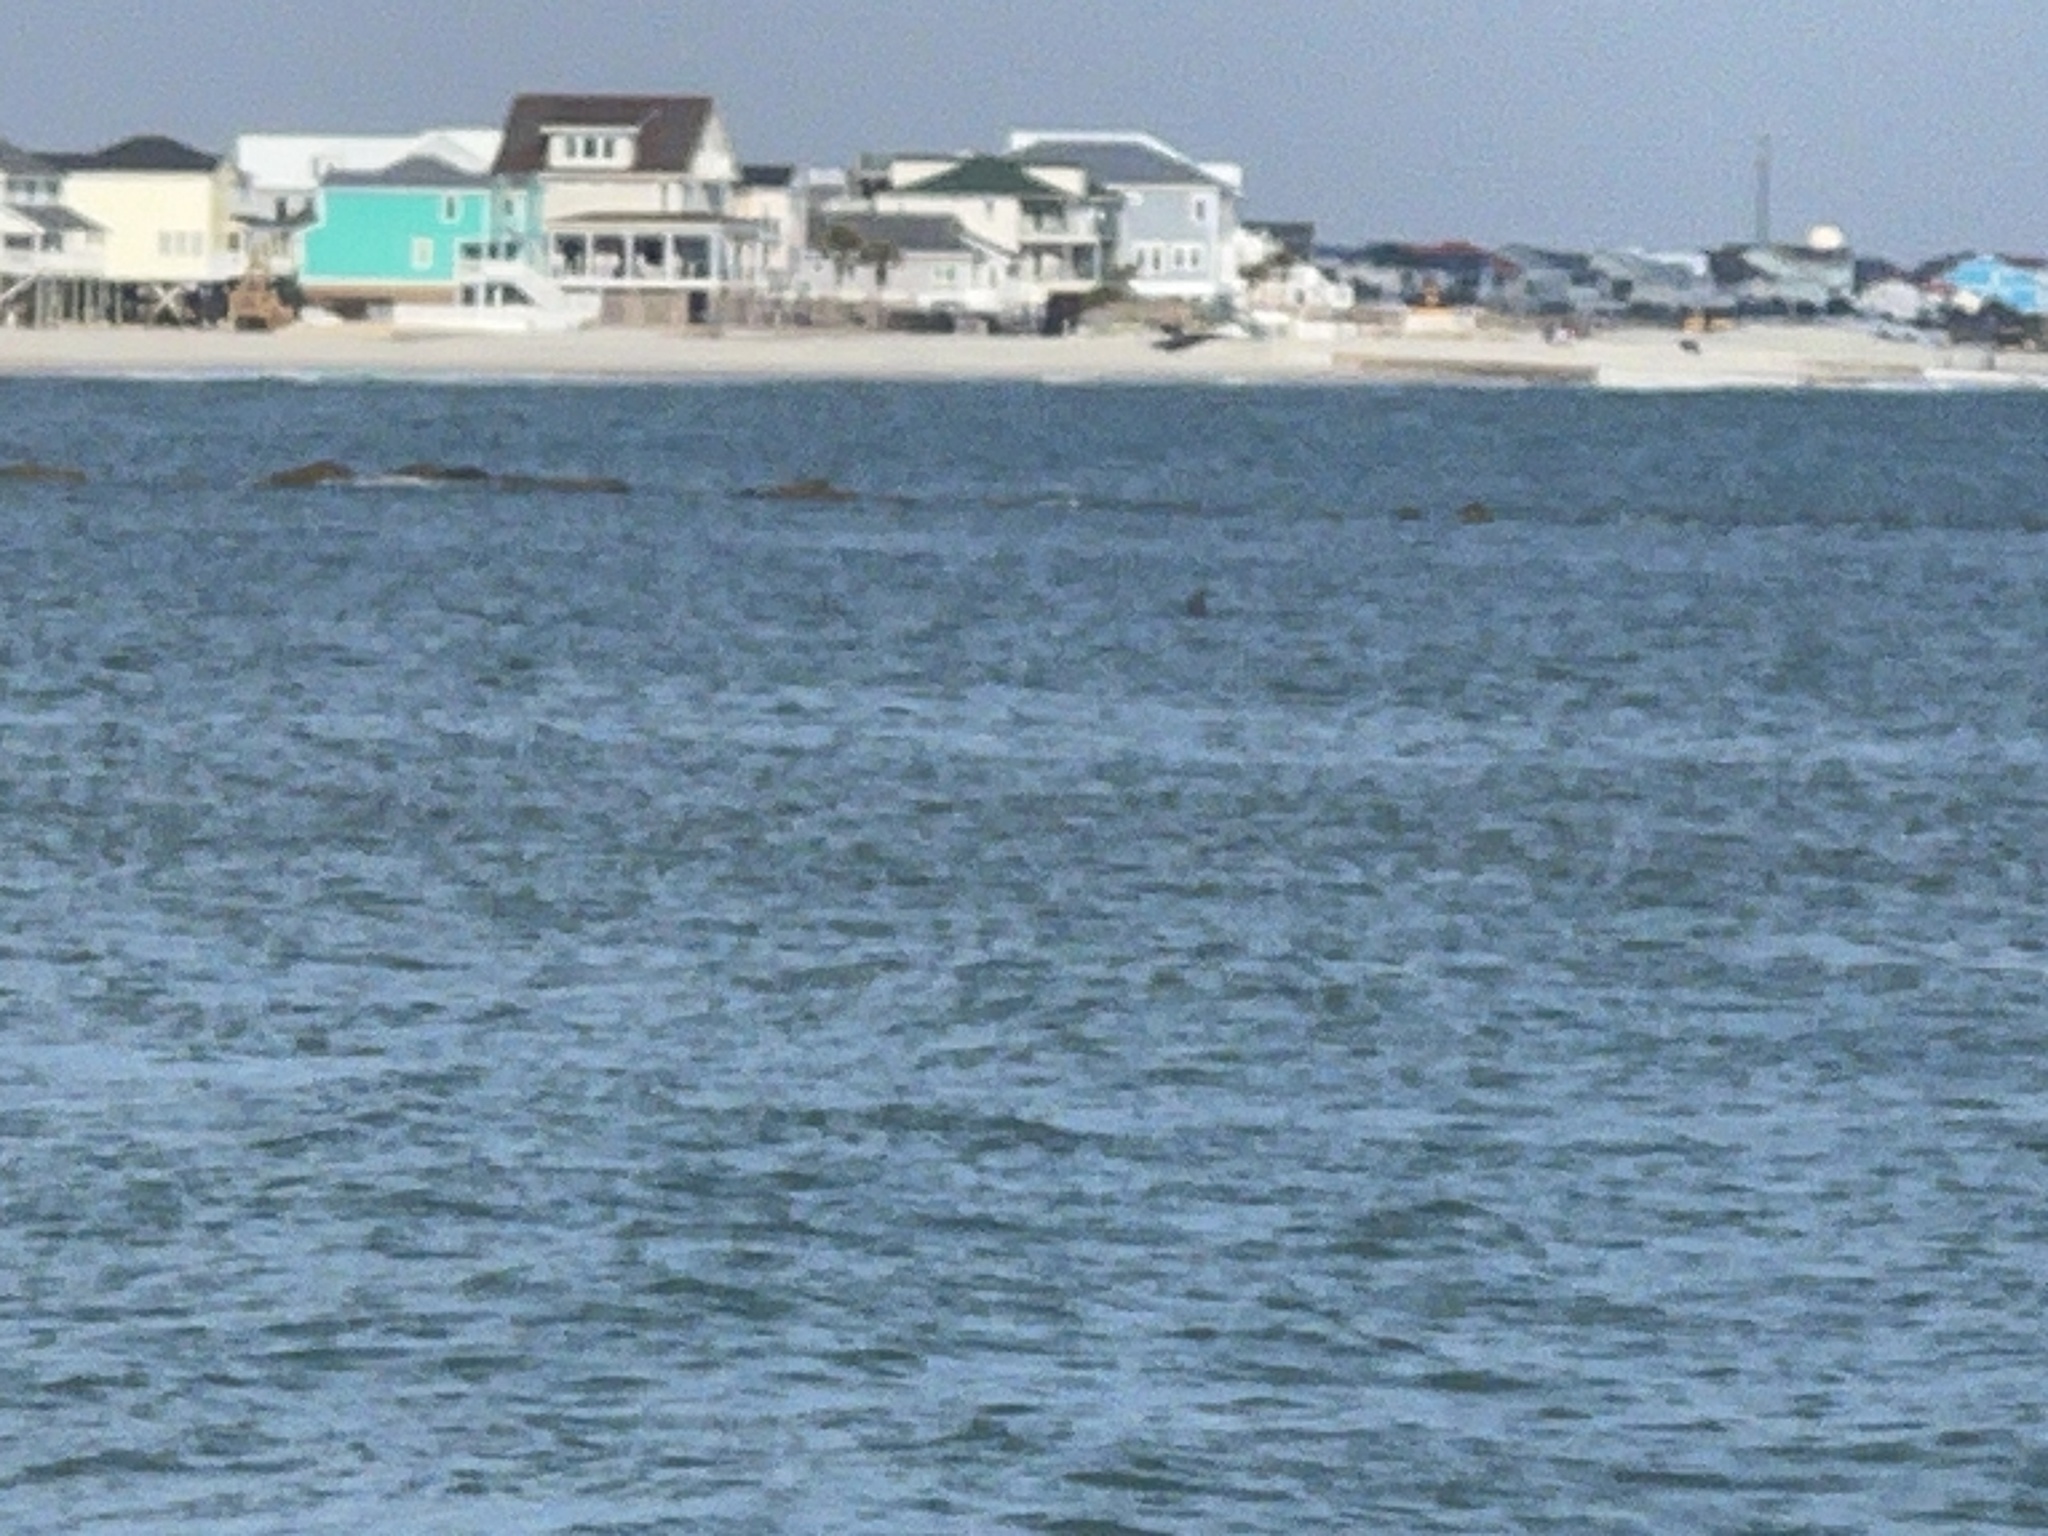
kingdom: Animalia
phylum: Chordata
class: Mammalia
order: Cetacea
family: Delphinidae
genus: Tursiops
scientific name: Tursiops truncatus
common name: Bottlenose dolphin
